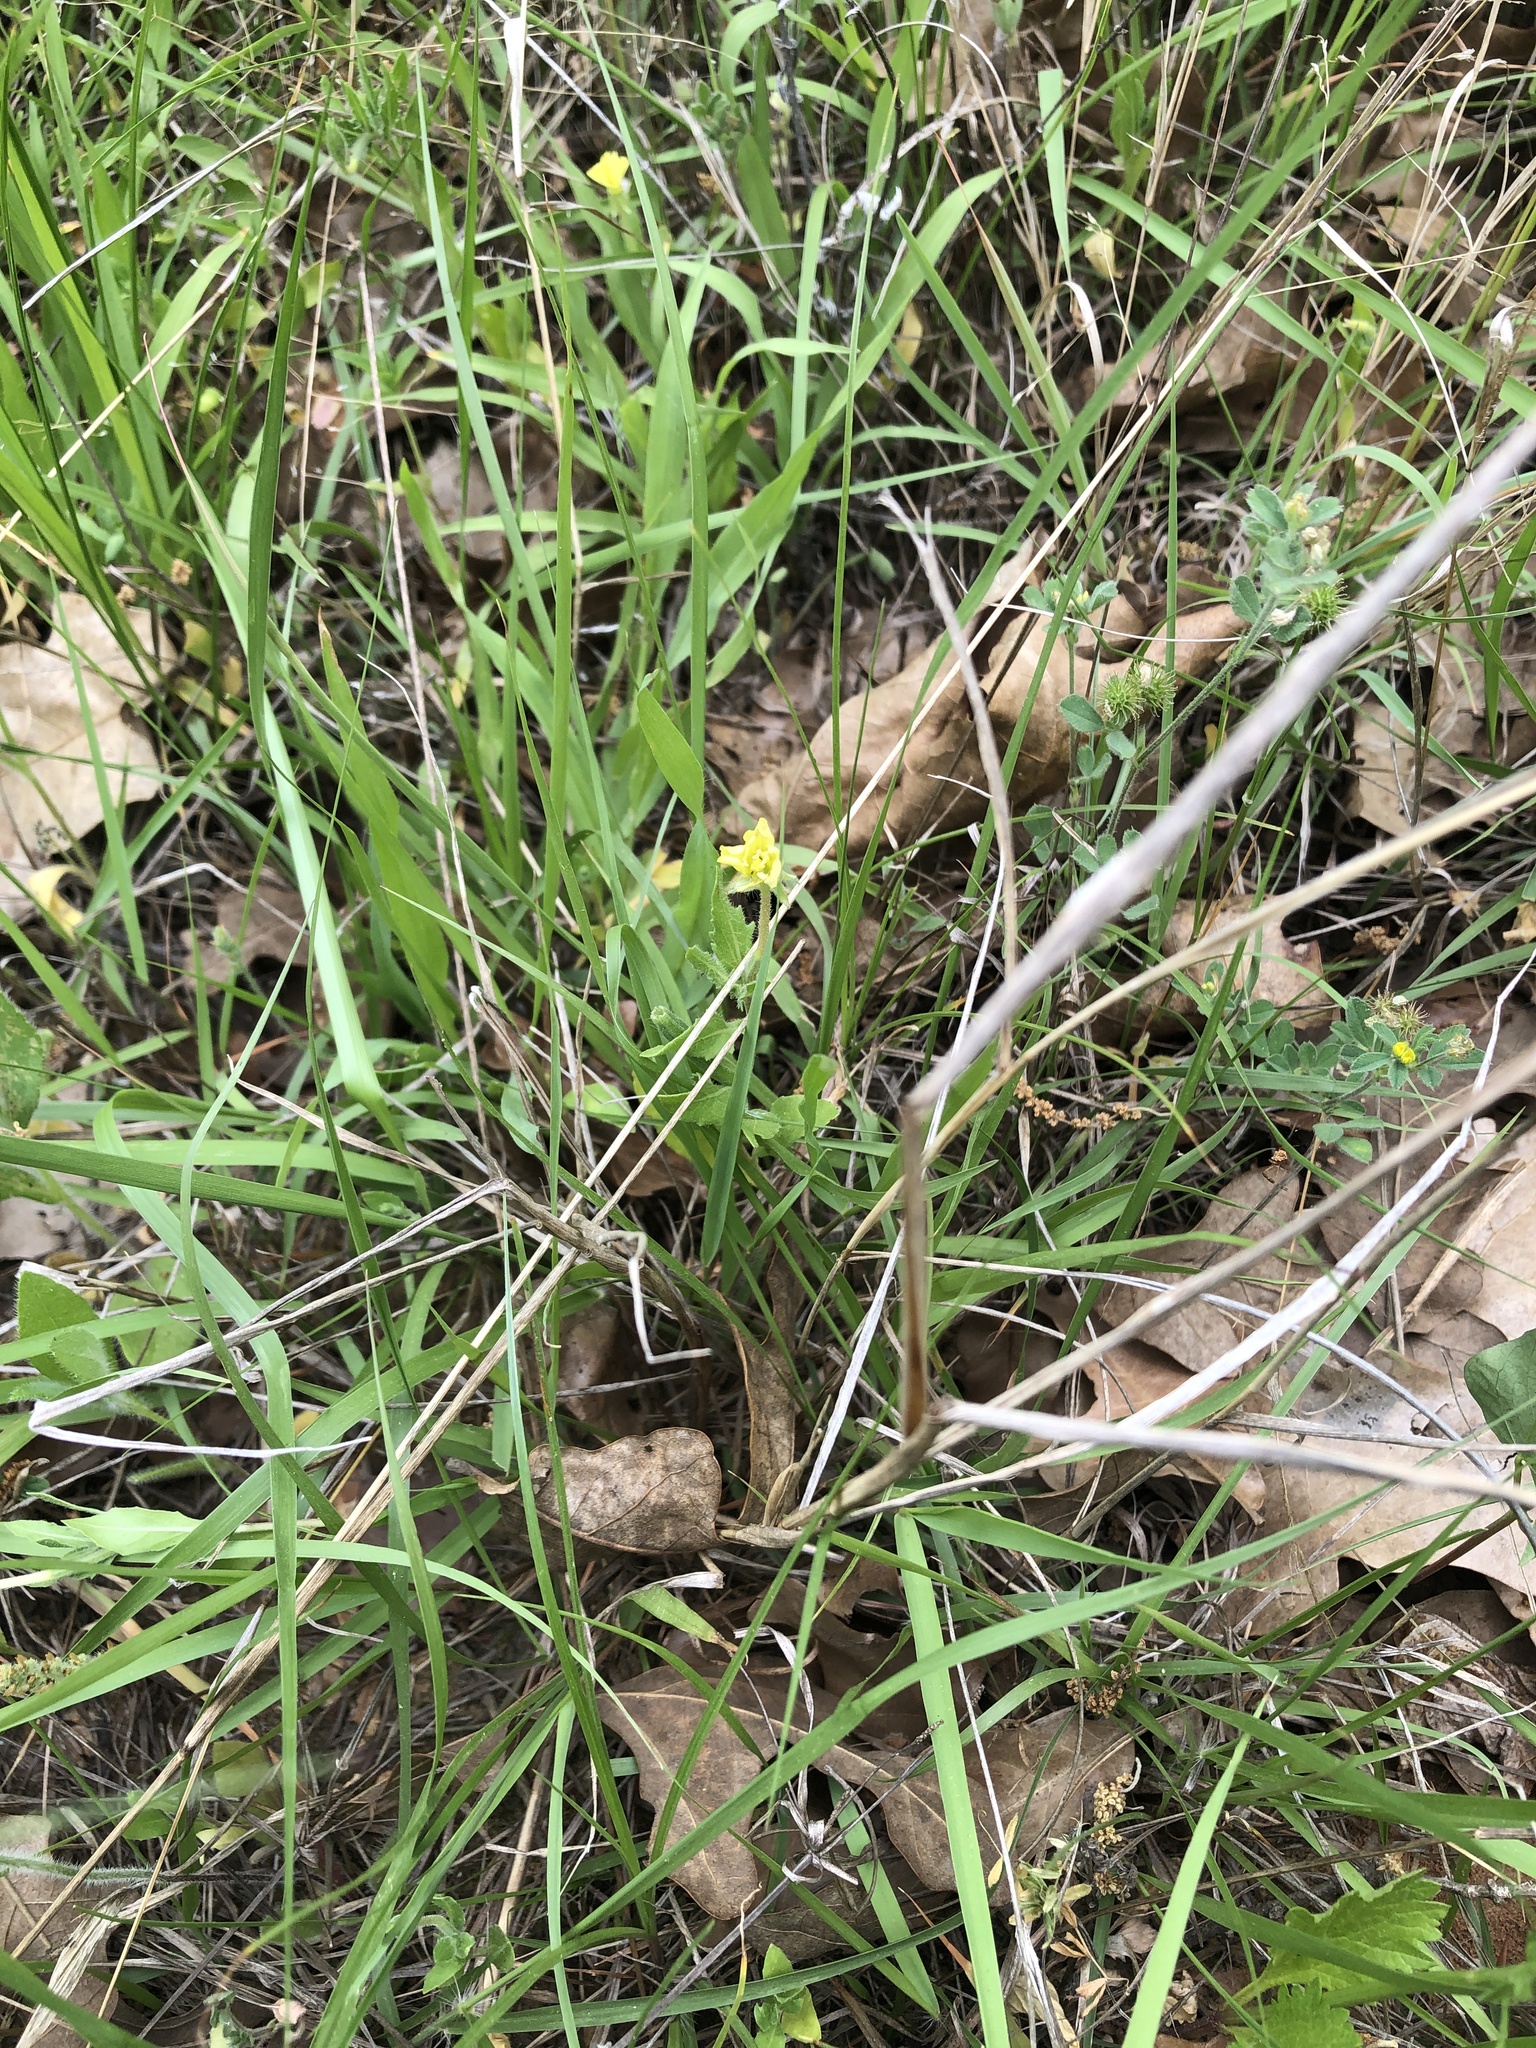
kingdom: Plantae
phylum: Tracheophyta
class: Magnoliopsida
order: Myrtales
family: Onagraceae
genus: Oenothera
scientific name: Oenothera laciniata
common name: Cut-leaved evening-primrose
